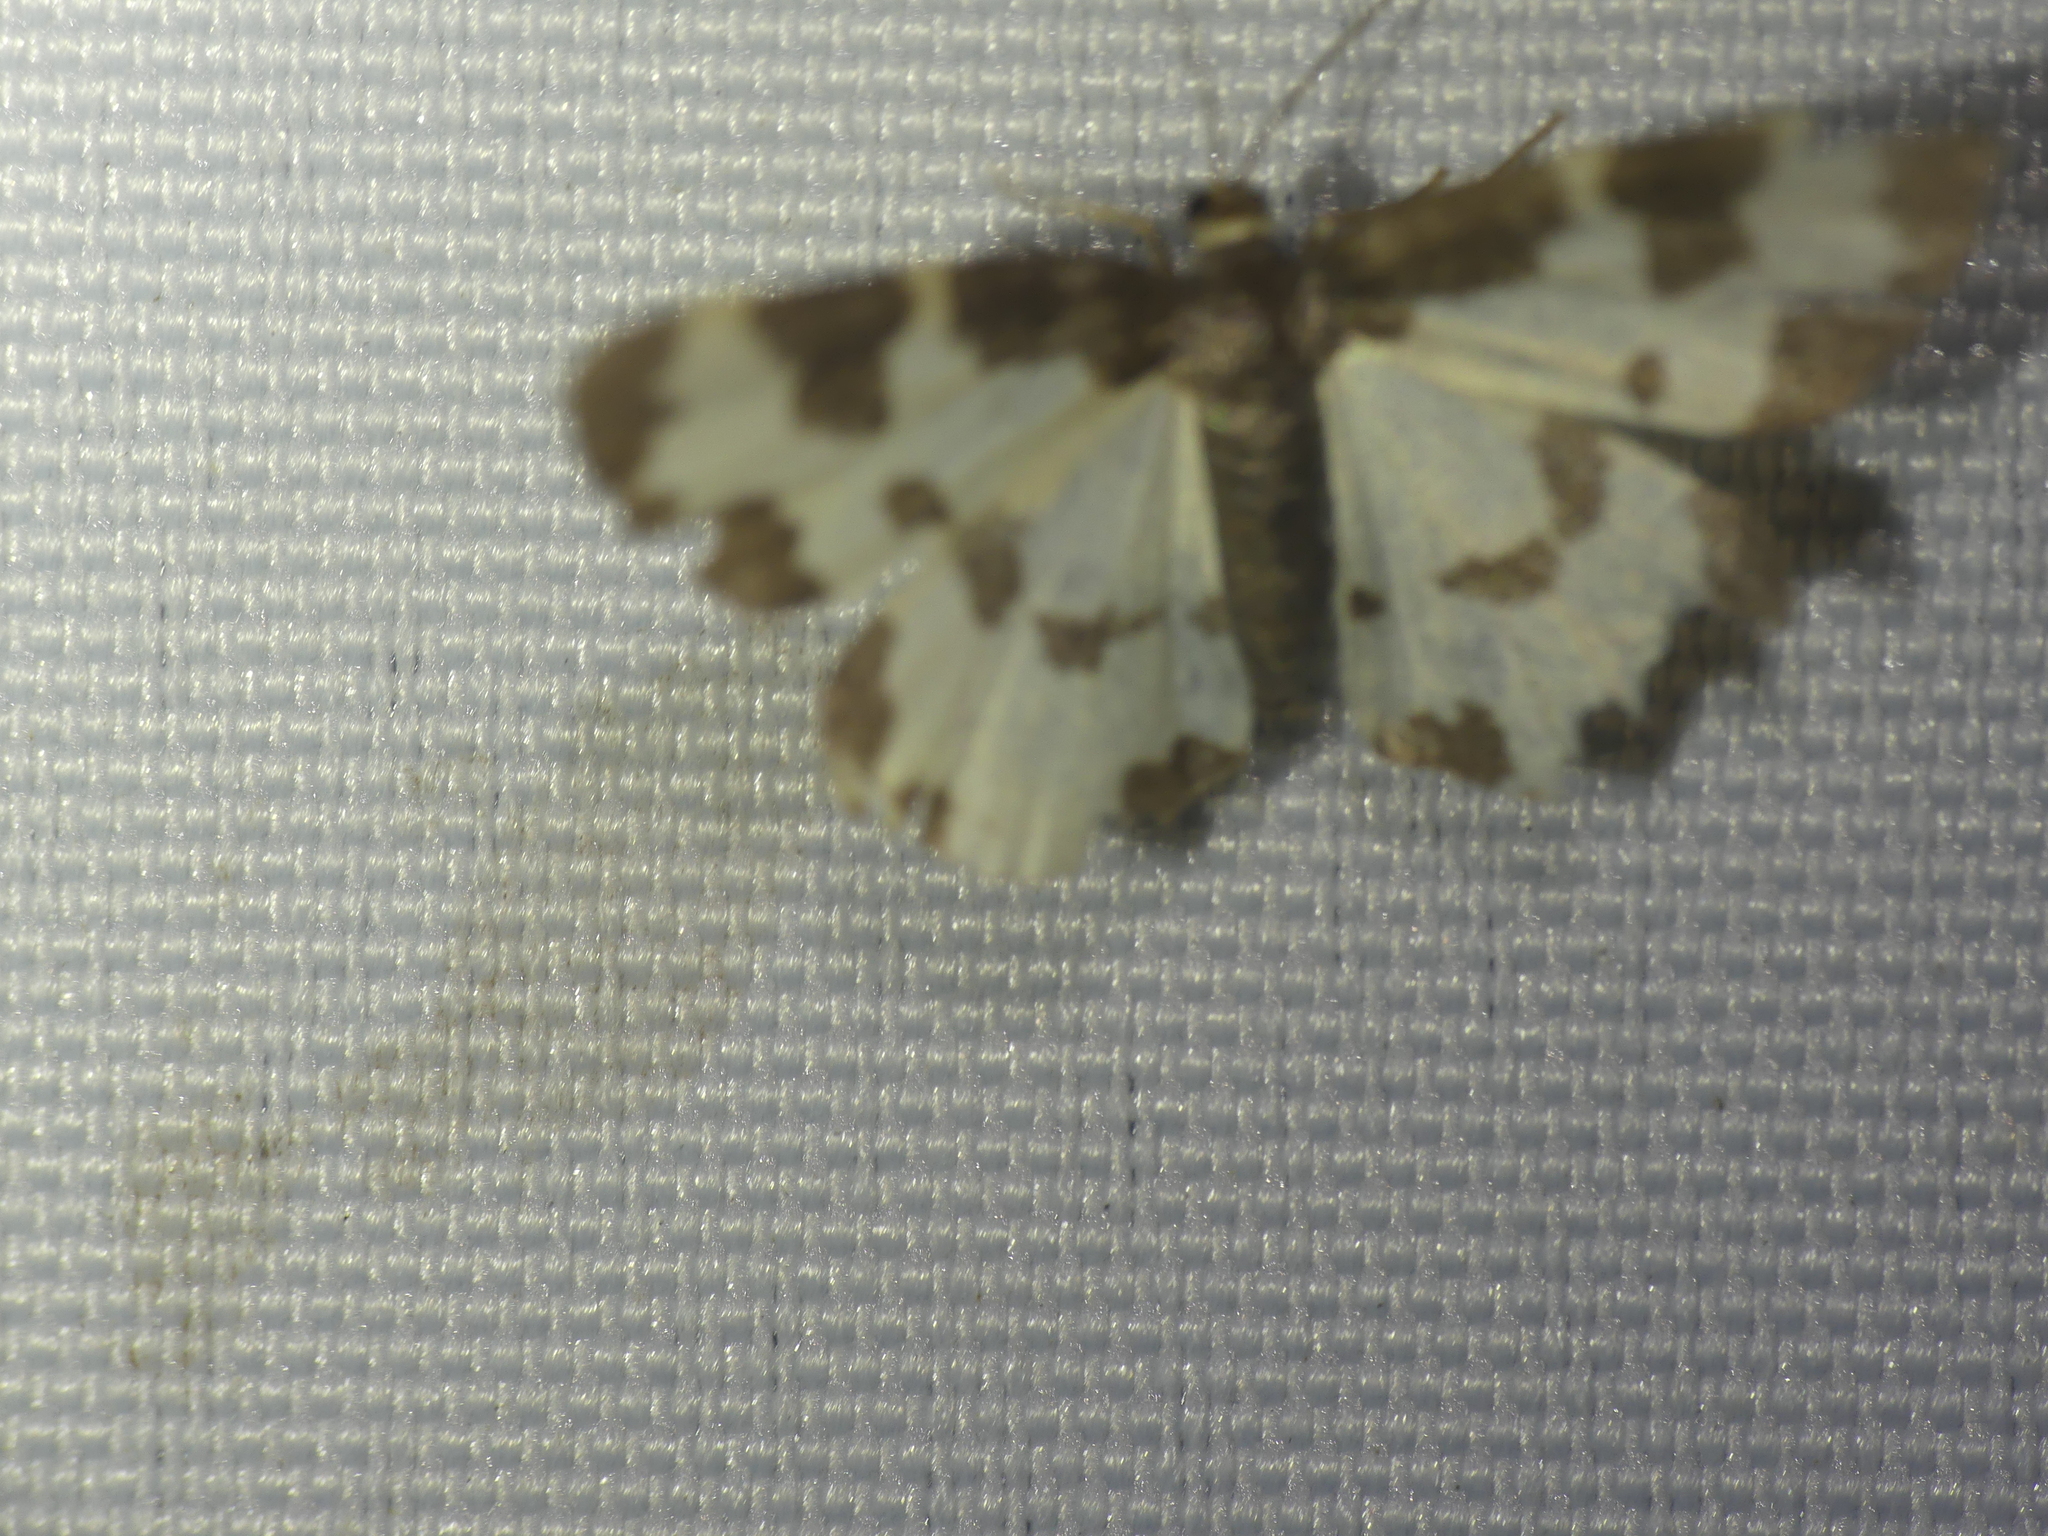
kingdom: Animalia
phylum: Arthropoda
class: Insecta
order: Lepidoptera
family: Geometridae
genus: Lomaspilis
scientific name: Lomaspilis marginata
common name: Clouded border
